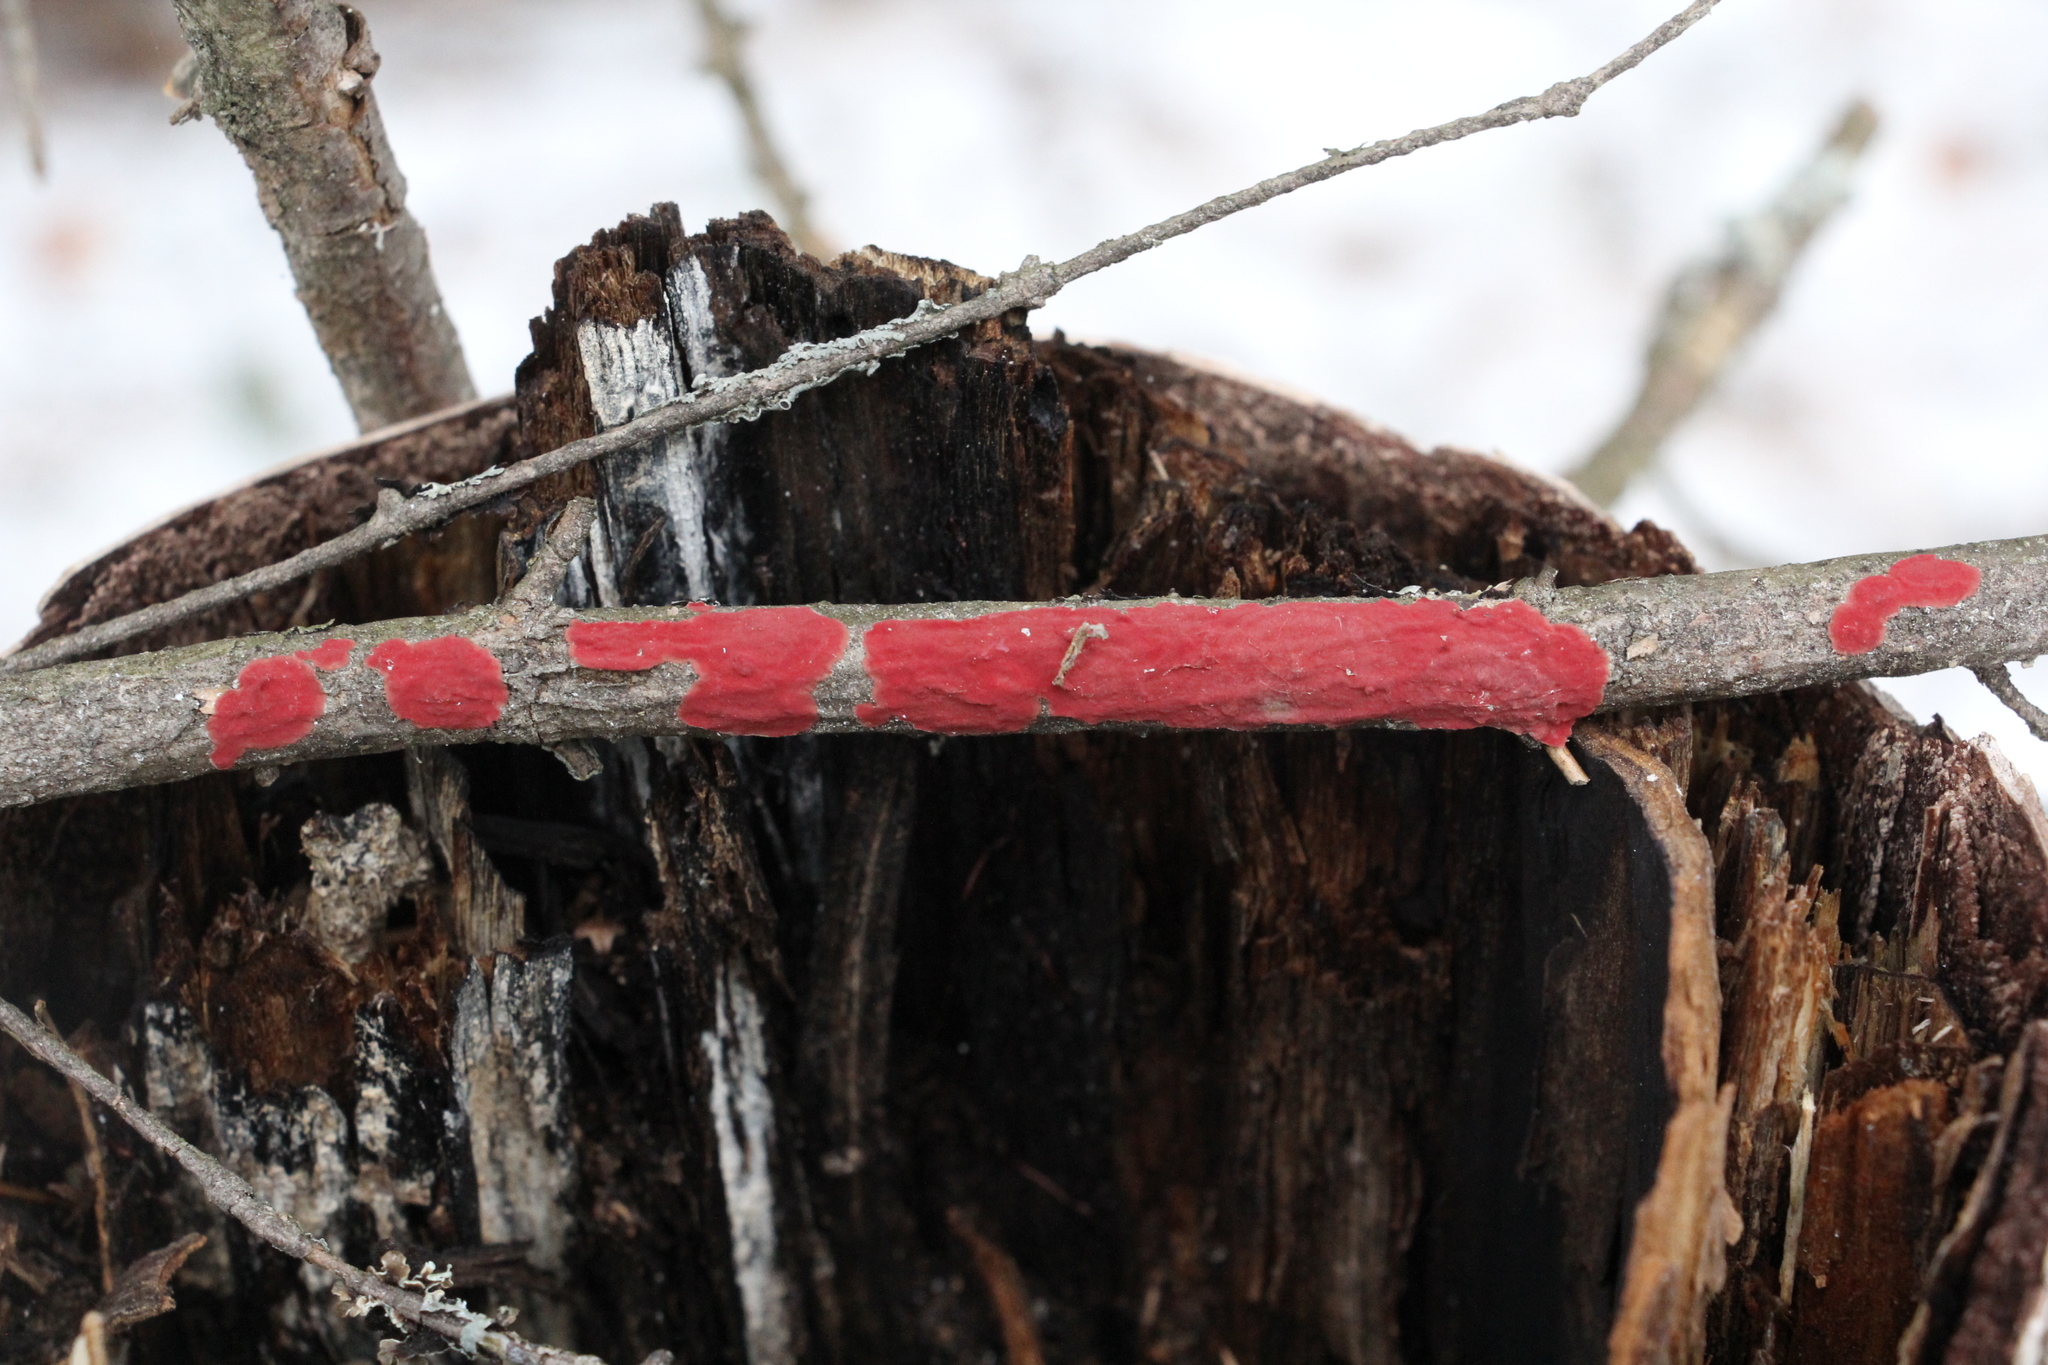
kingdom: Fungi
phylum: Basidiomycota
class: Agaricomycetes
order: Hymenochaetales
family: Hymenochaetaceae
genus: Hymenochaete
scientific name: Hymenochaete cruenta
